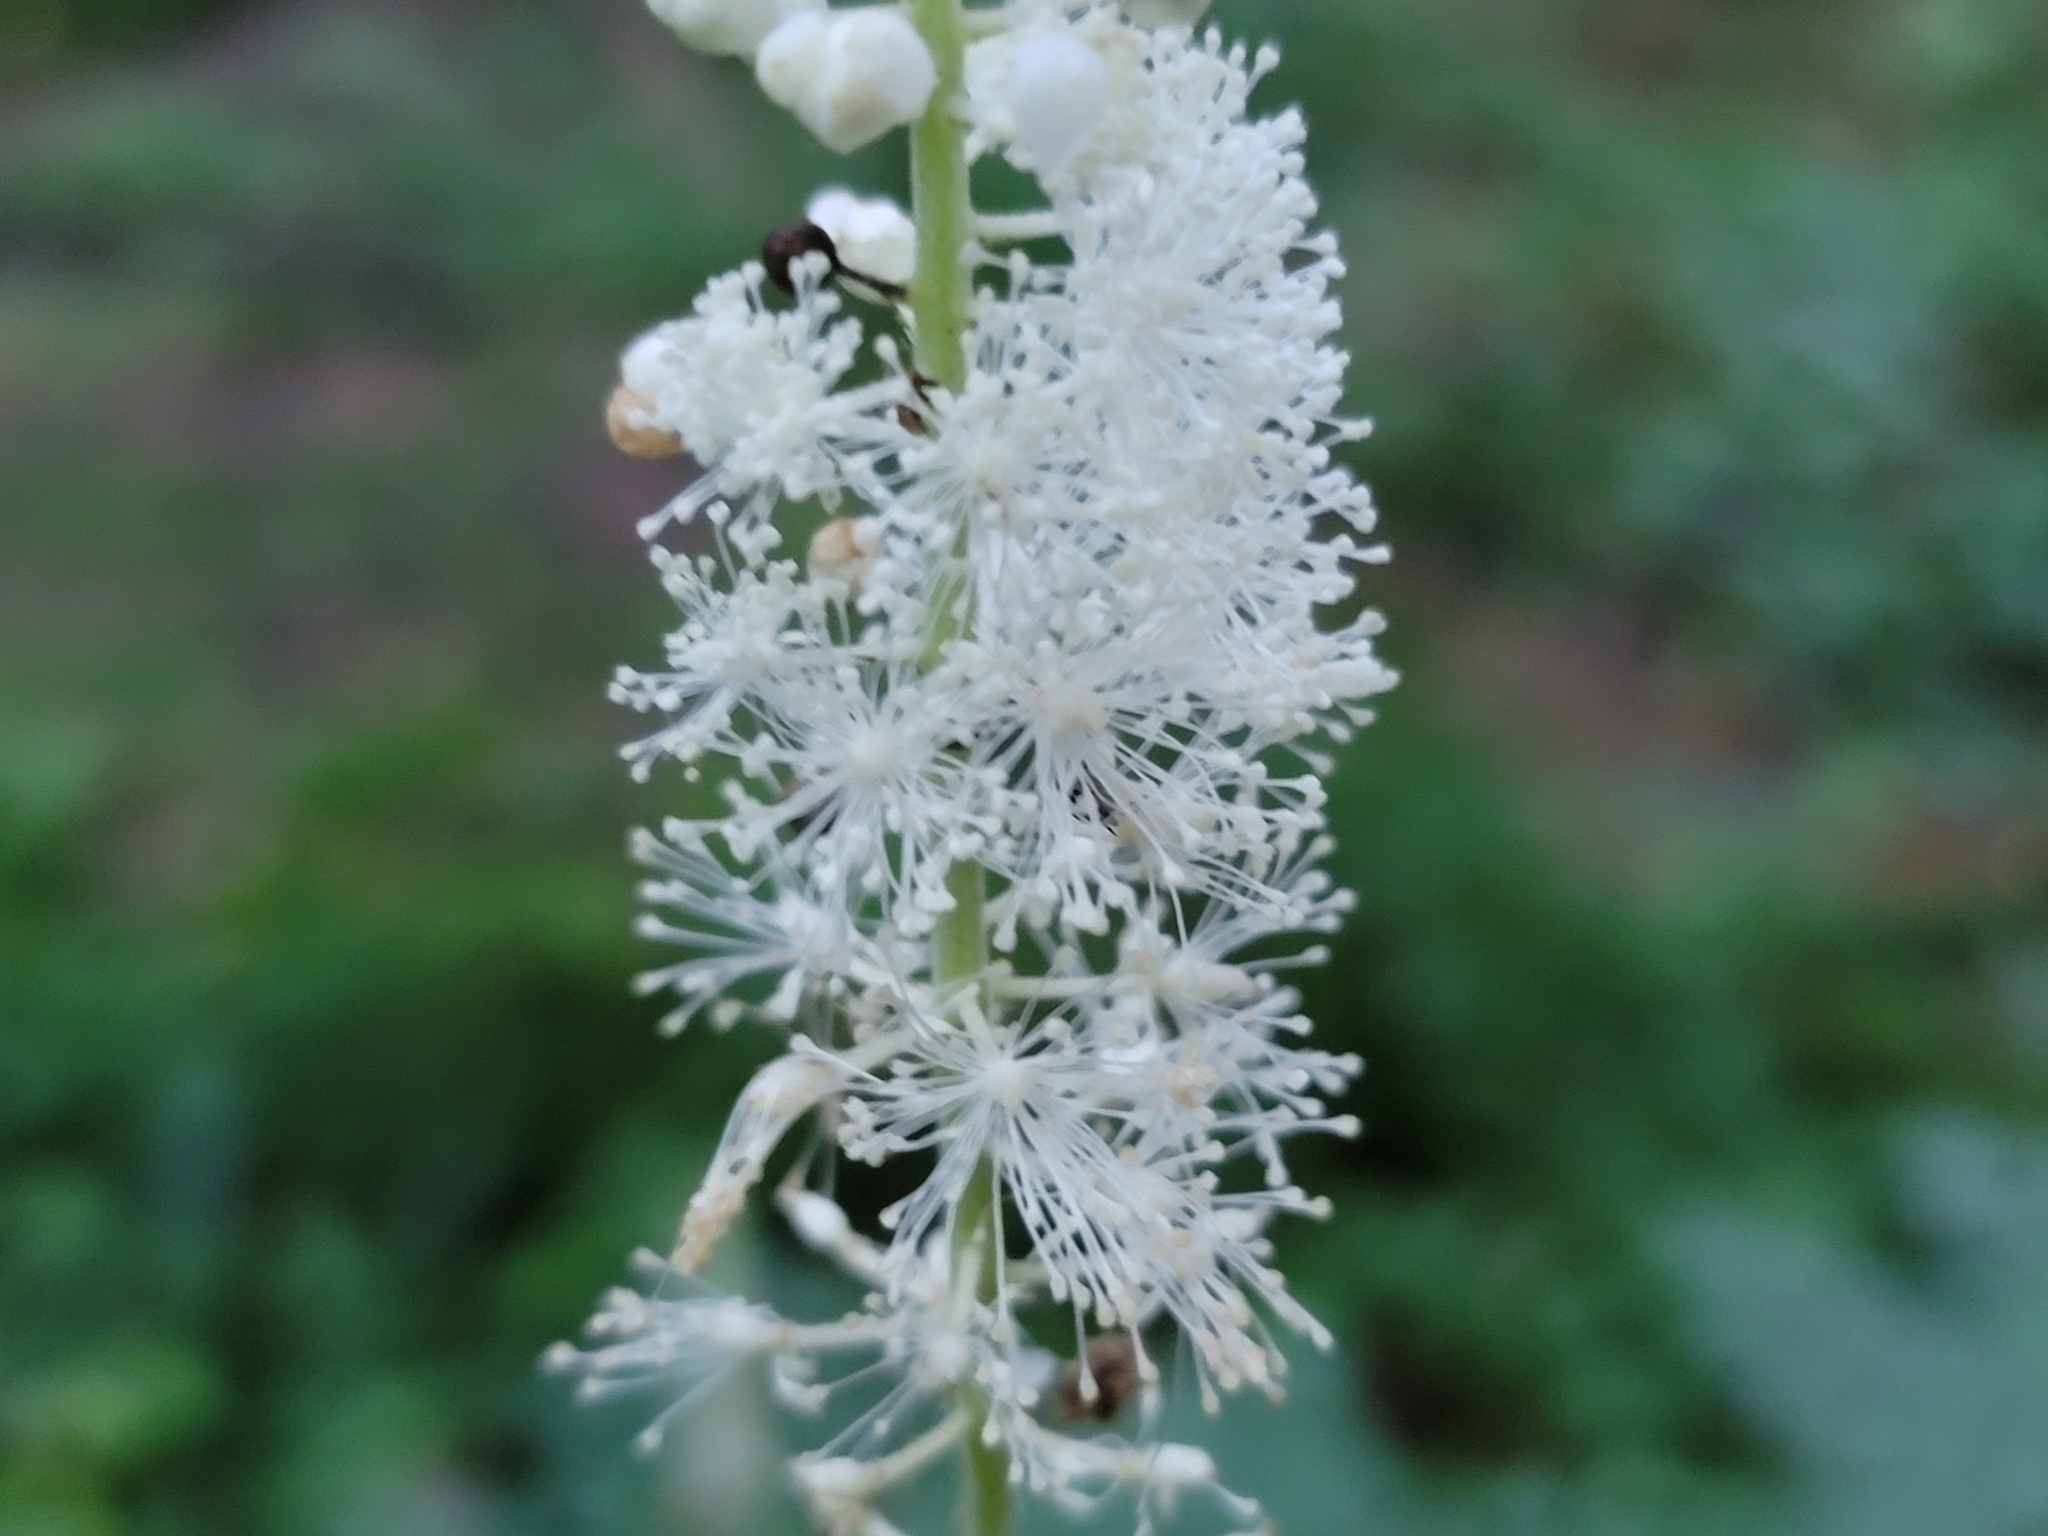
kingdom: Plantae
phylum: Tracheophyta
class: Magnoliopsida
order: Ranunculales
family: Ranunculaceae
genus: Actaea
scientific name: Actaea racemosa
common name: Black cohosh
